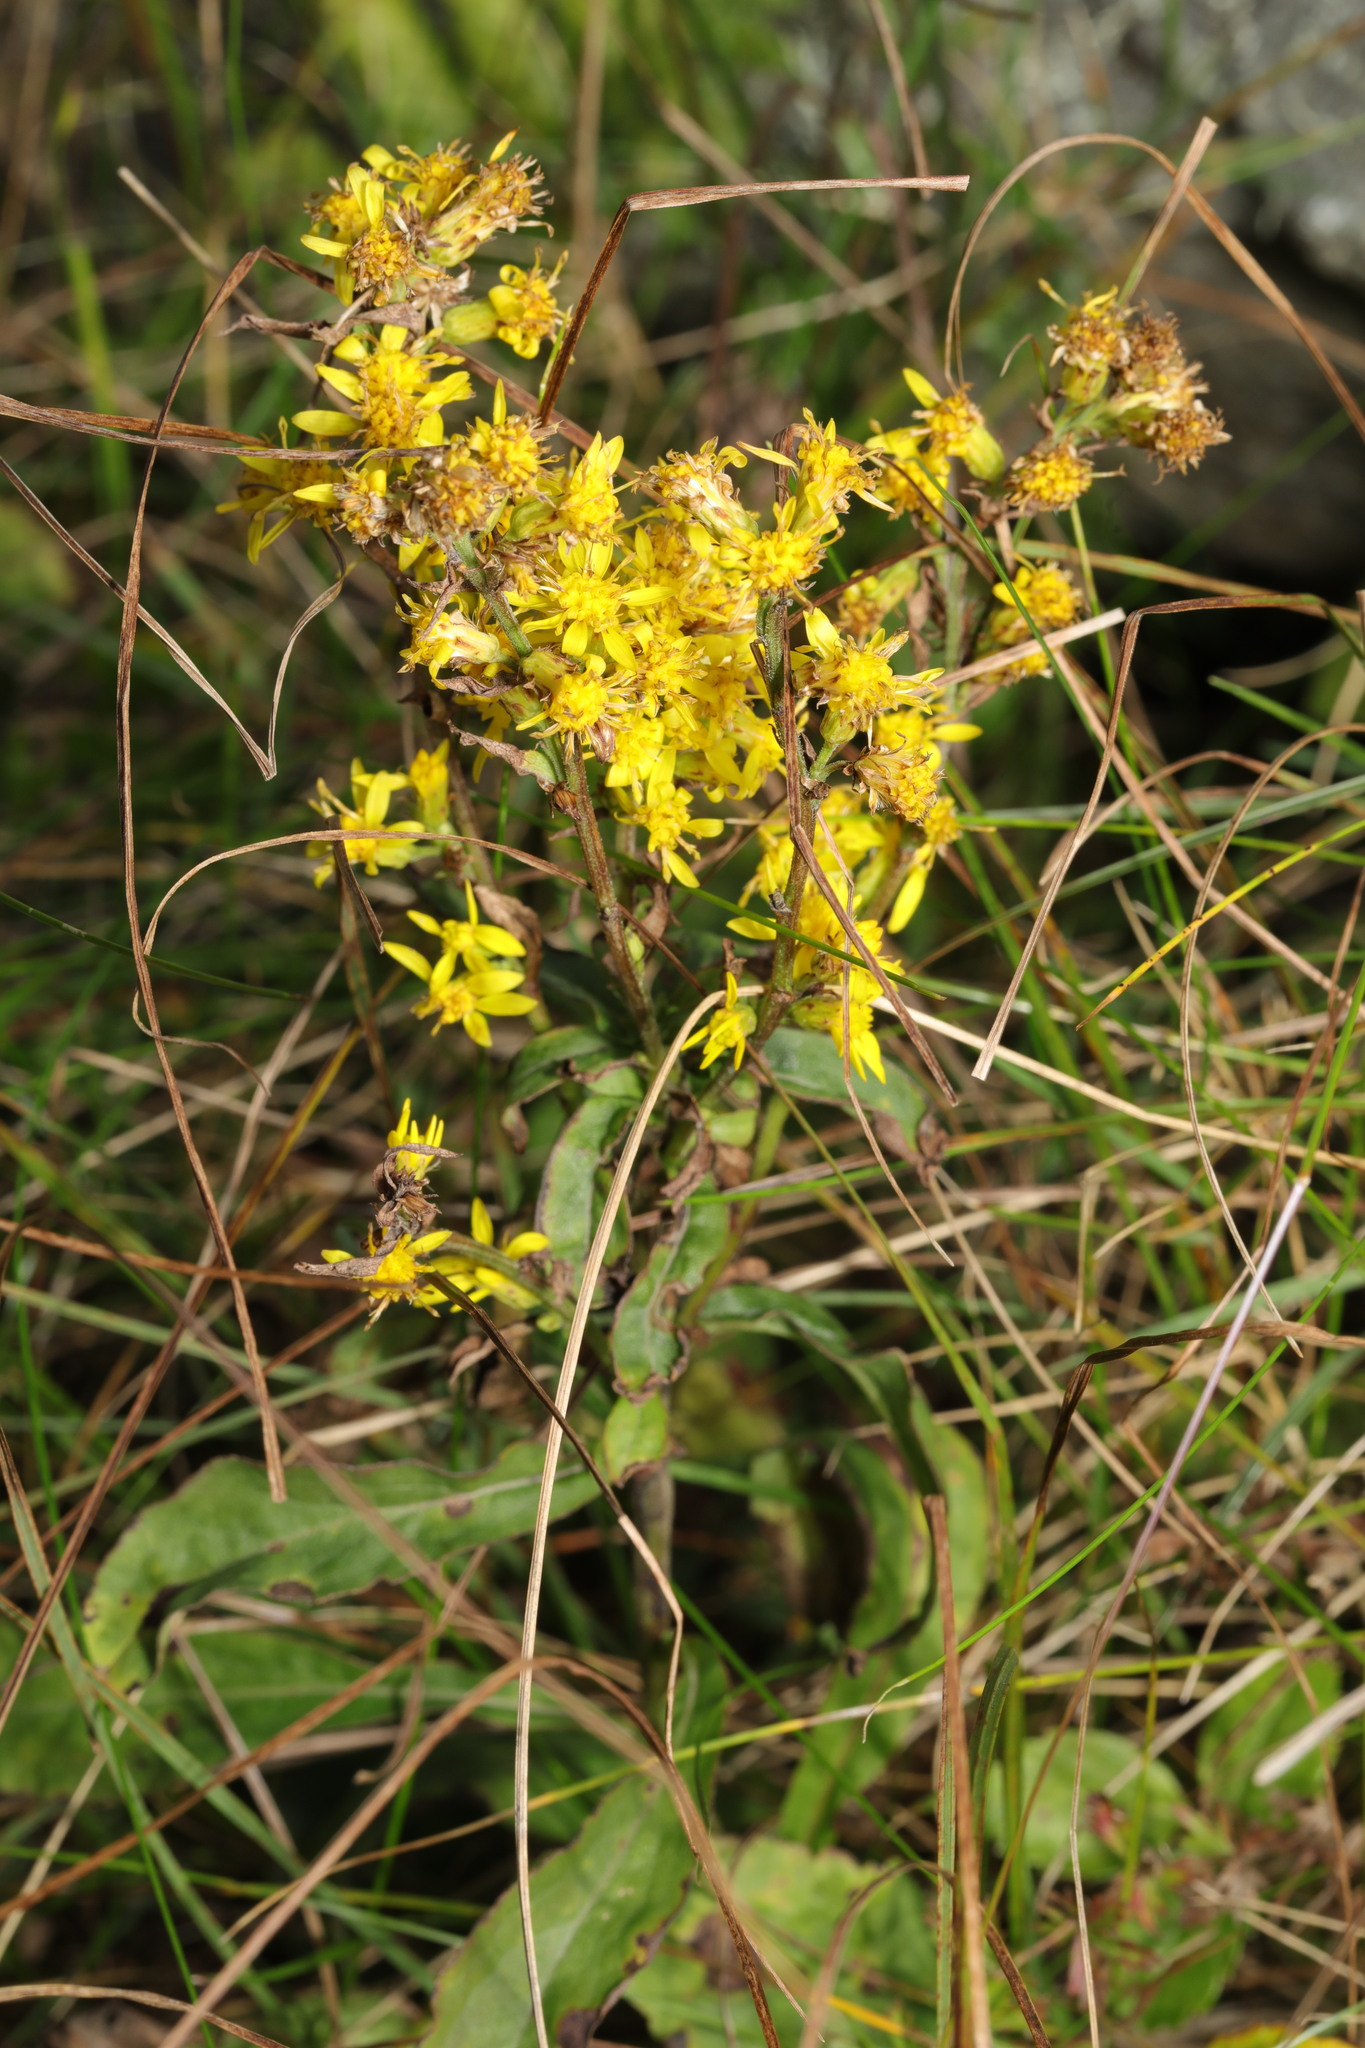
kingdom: Plantae
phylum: Tracheophyta
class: Magnoliopsida
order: Asterales
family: Asteraceae
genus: Solidago
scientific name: Solidago virgaurea
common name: Goldenrod
